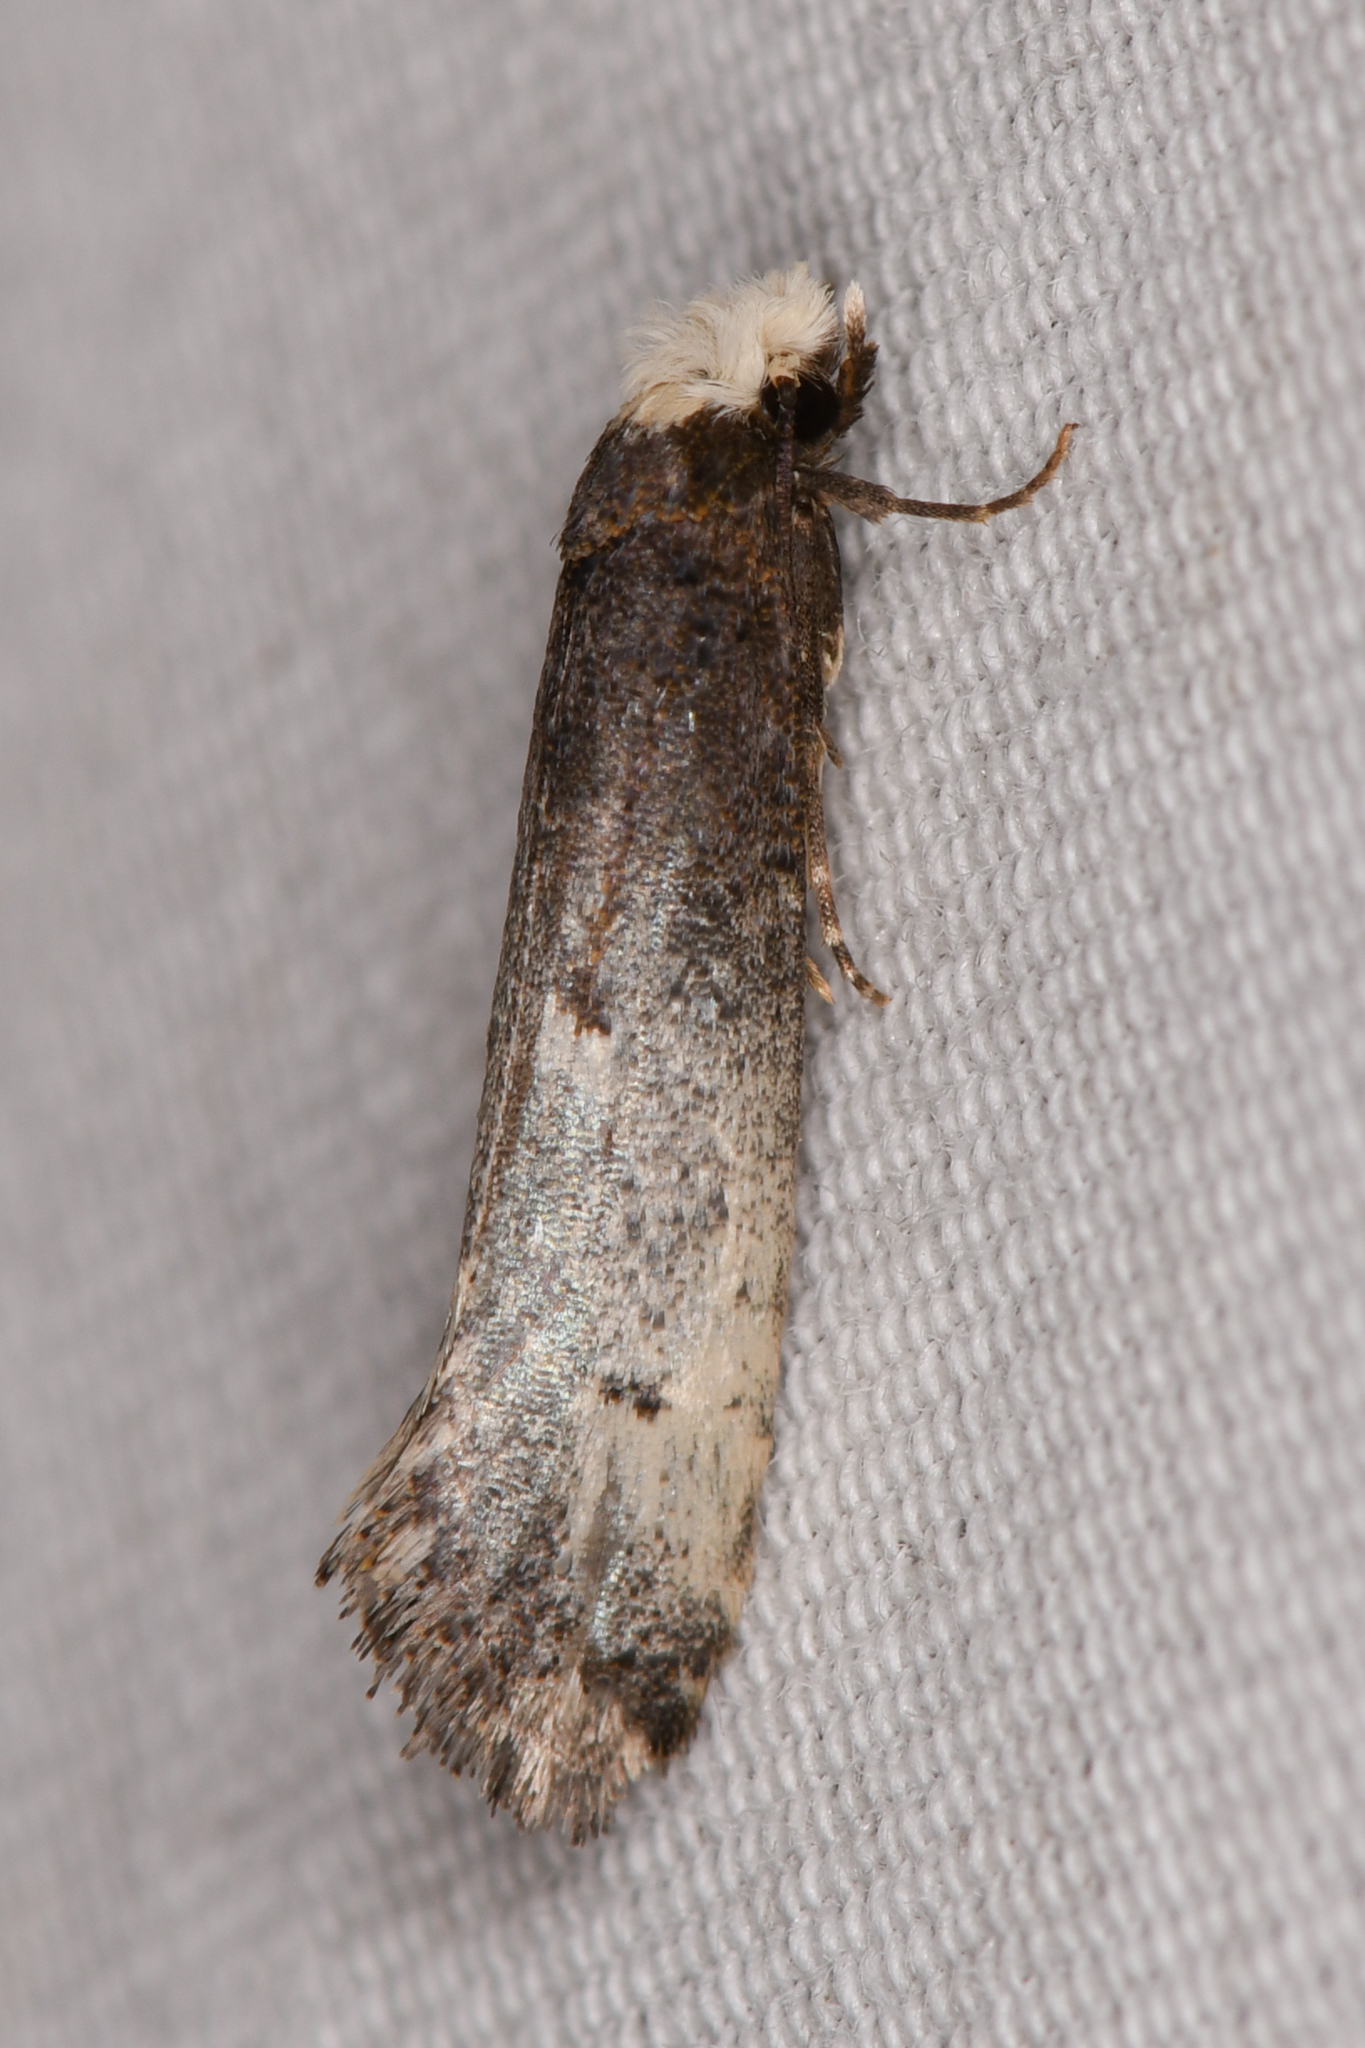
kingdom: Animalia
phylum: Arthropoda
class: Insecta
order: Lepidoptera
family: Tineidae
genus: Tinea
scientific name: Tinea occidentella
